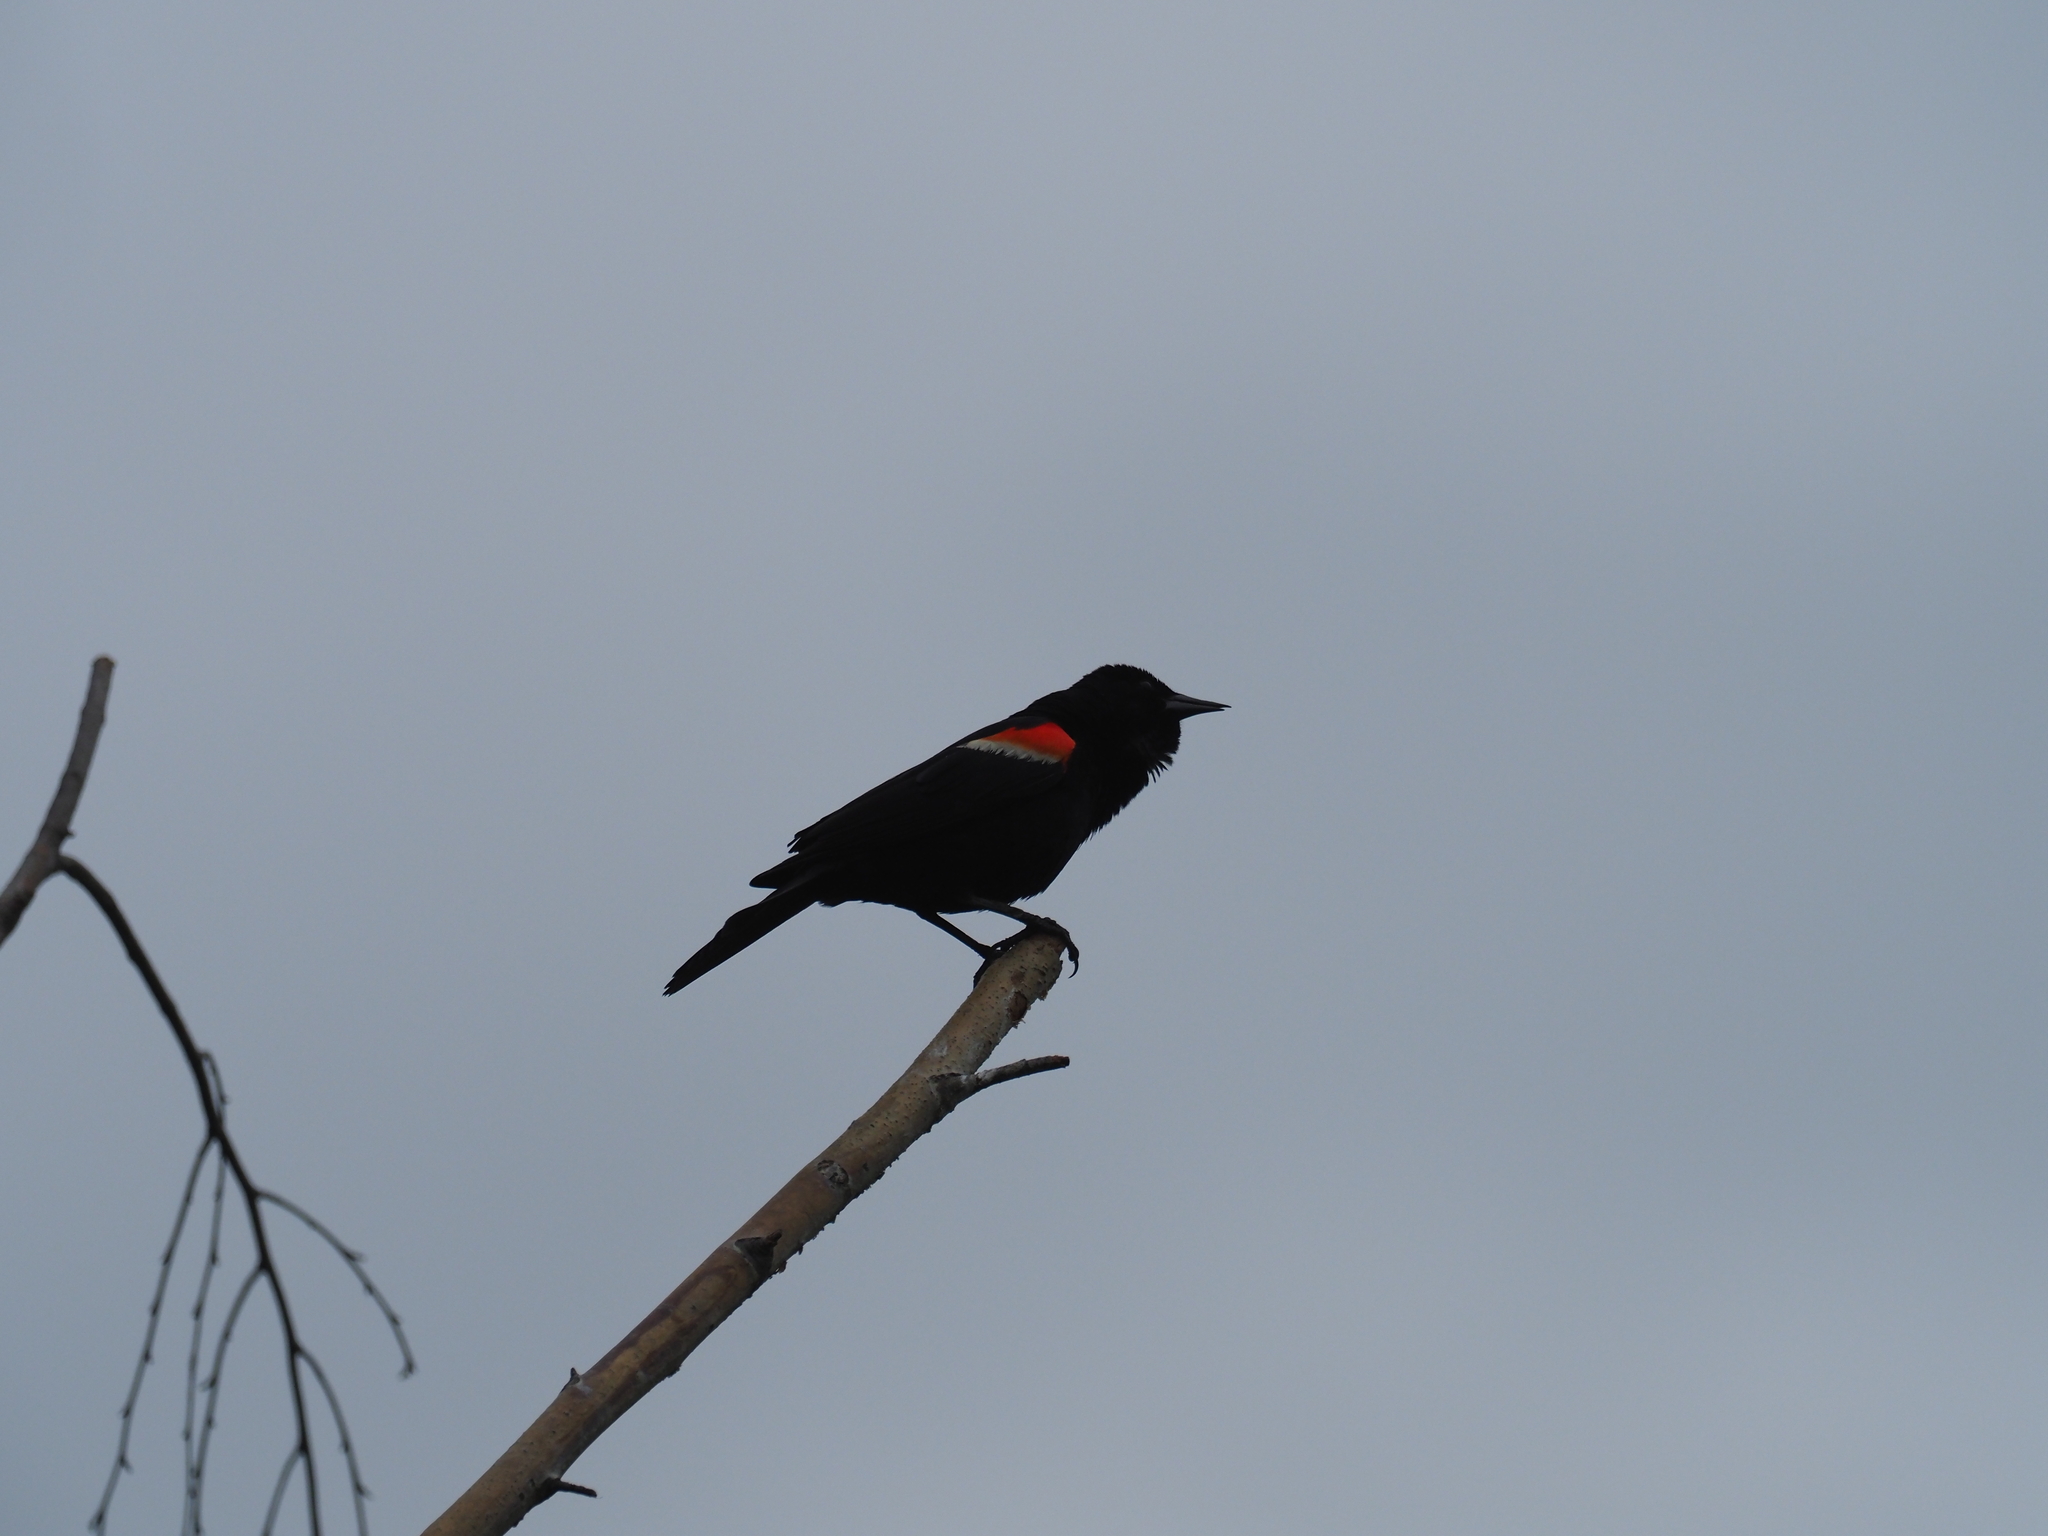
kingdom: Animalia
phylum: Chordata
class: Aves
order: Passeriformes
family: Icteridae
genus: Agelaius
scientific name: Agelaius phoeniceus
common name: Red-winged blackbird
